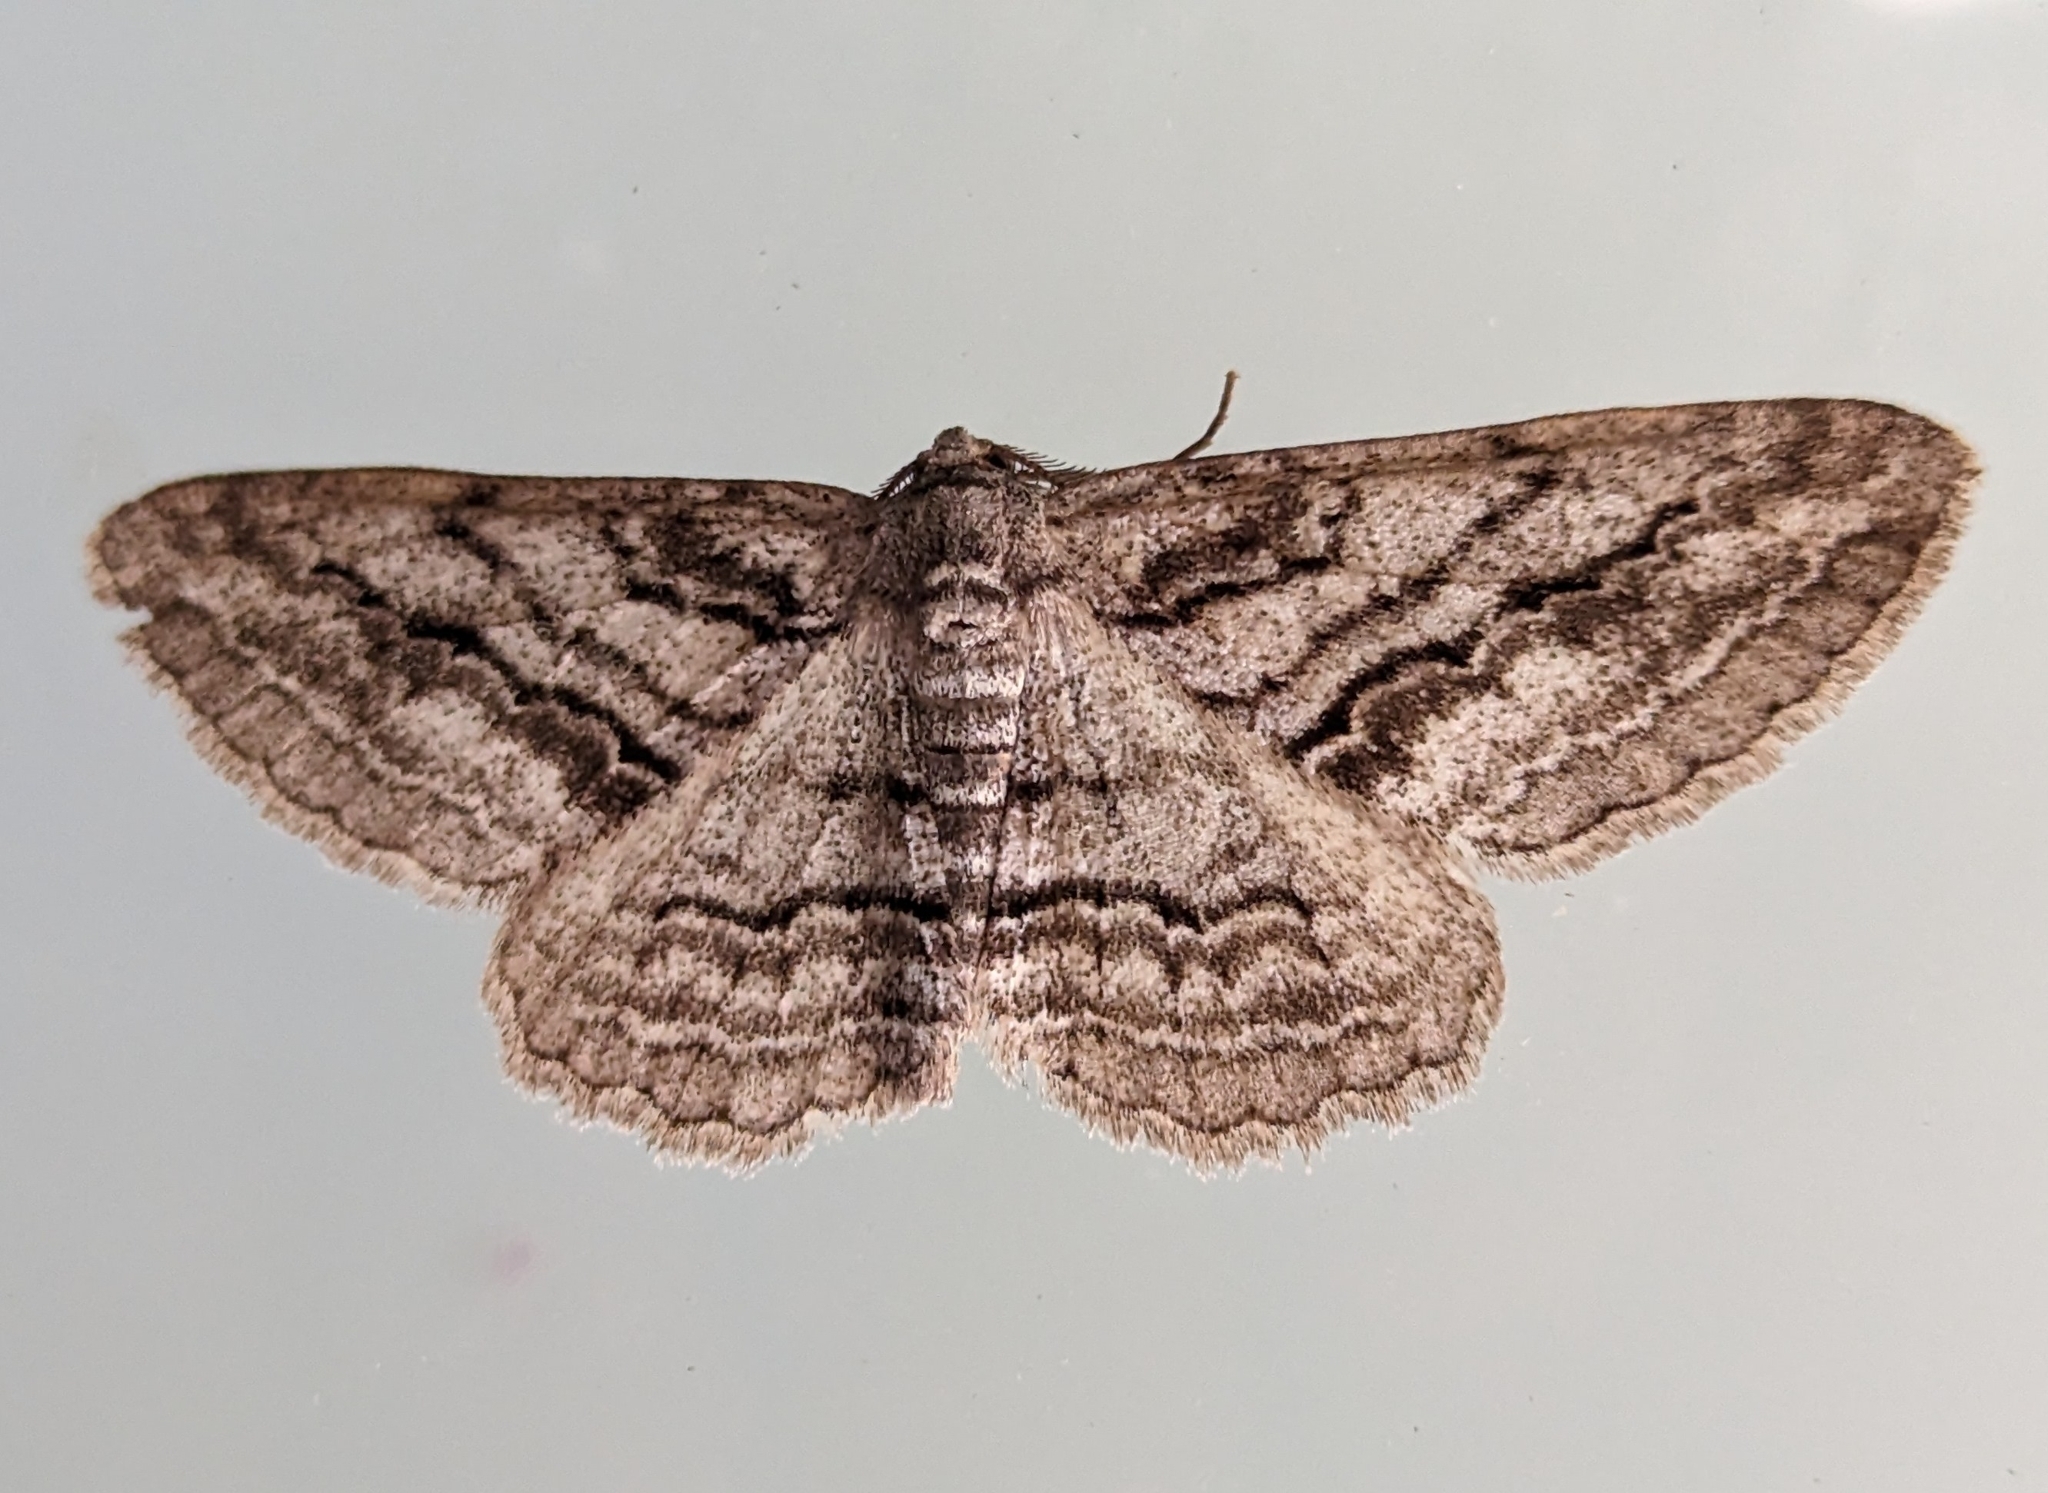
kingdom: Animalia
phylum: Arthropoda
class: Insecta
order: Lepidoptera
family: Geometridae
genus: Stenoporpia
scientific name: Stenoporpia excelsaria
